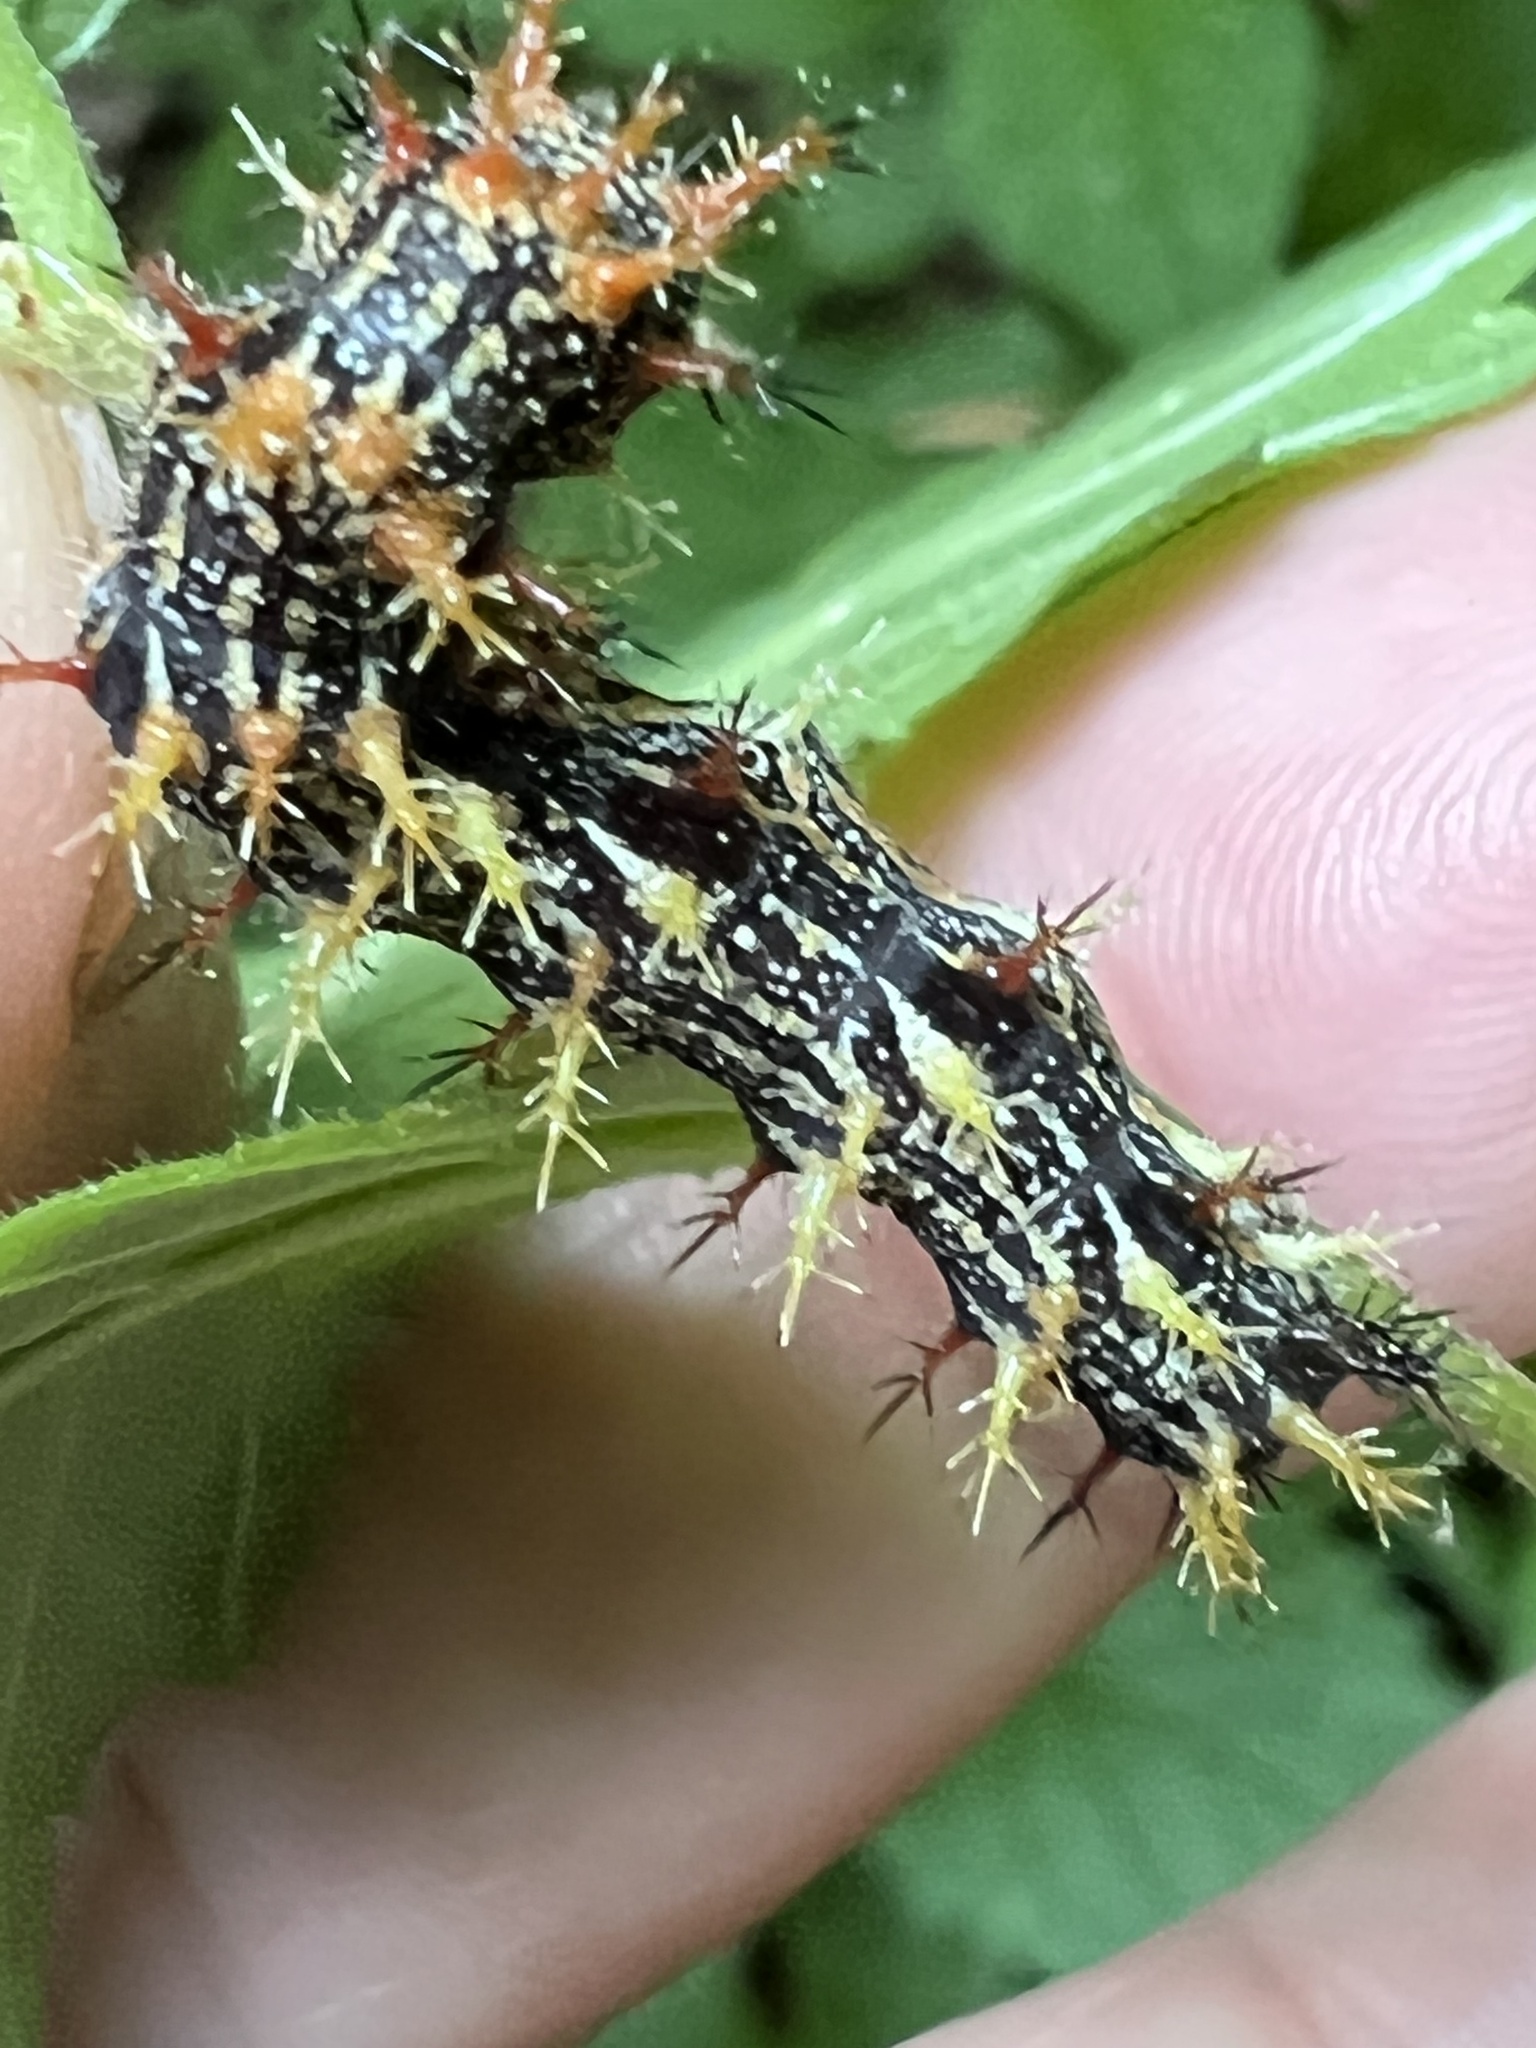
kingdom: Animalia
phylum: Arthropoda
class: Insecta
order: Lepidoptera
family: Nymphalidae
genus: Polygonia
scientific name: Polygonia interrogationis
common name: Question mark
